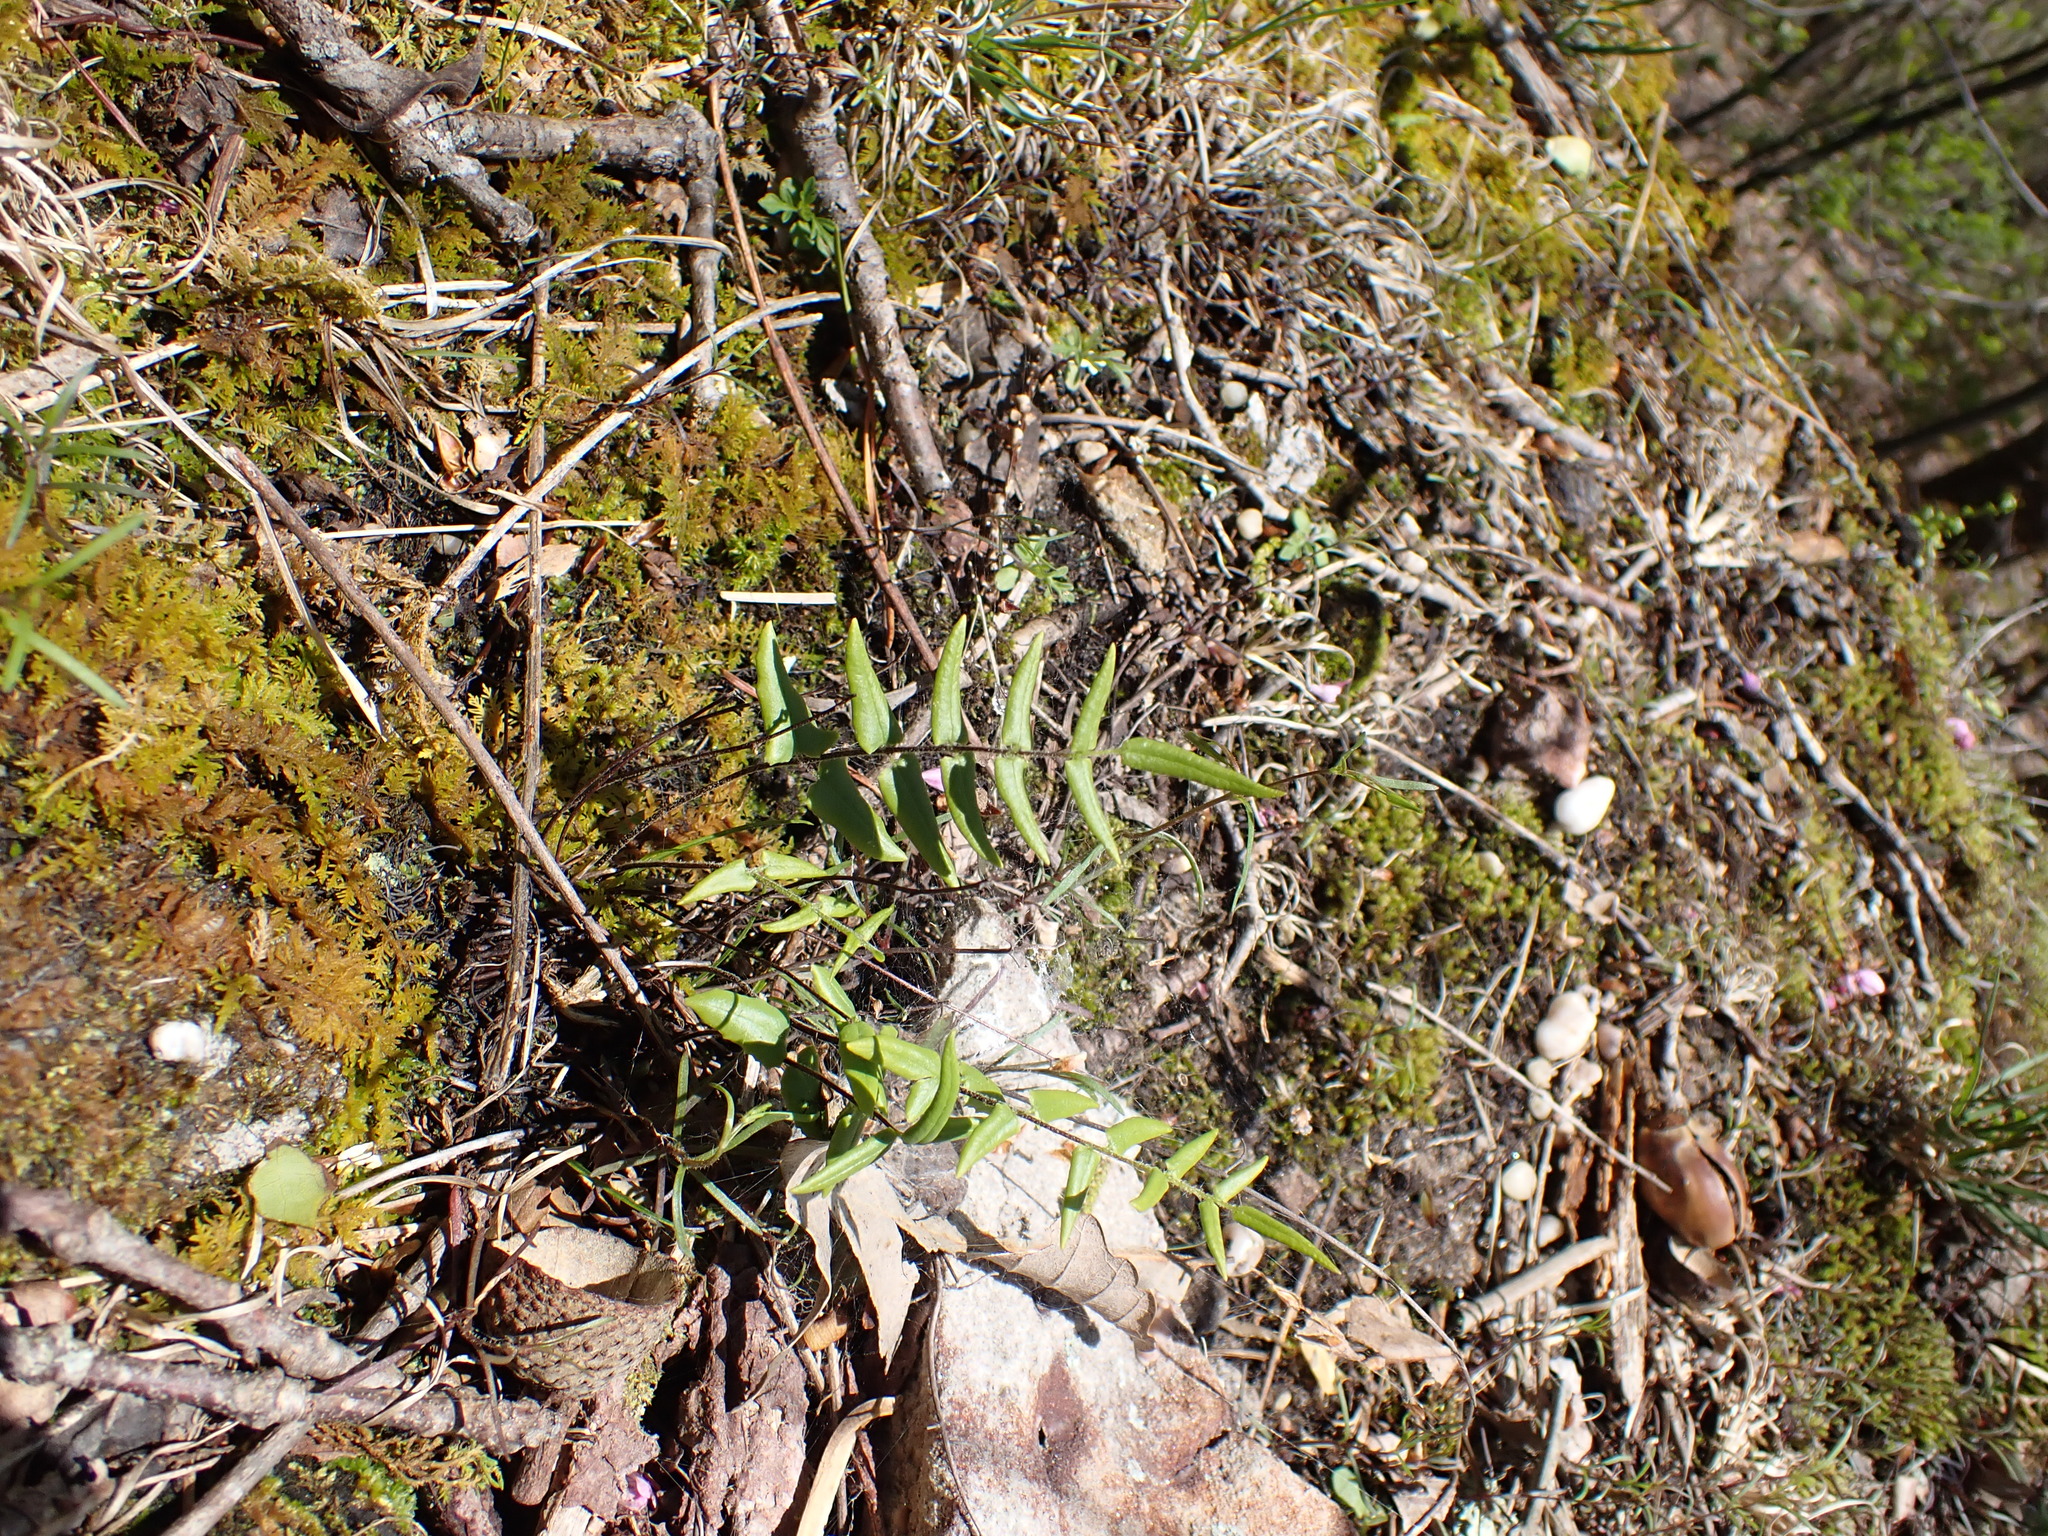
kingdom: Plantae
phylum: Tracheophyta
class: Polypodiopsida
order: Polypodiales
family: Pteridaceae
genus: Pellaea
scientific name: Pellaea atropurpurea
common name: Hairy cliffbrake
